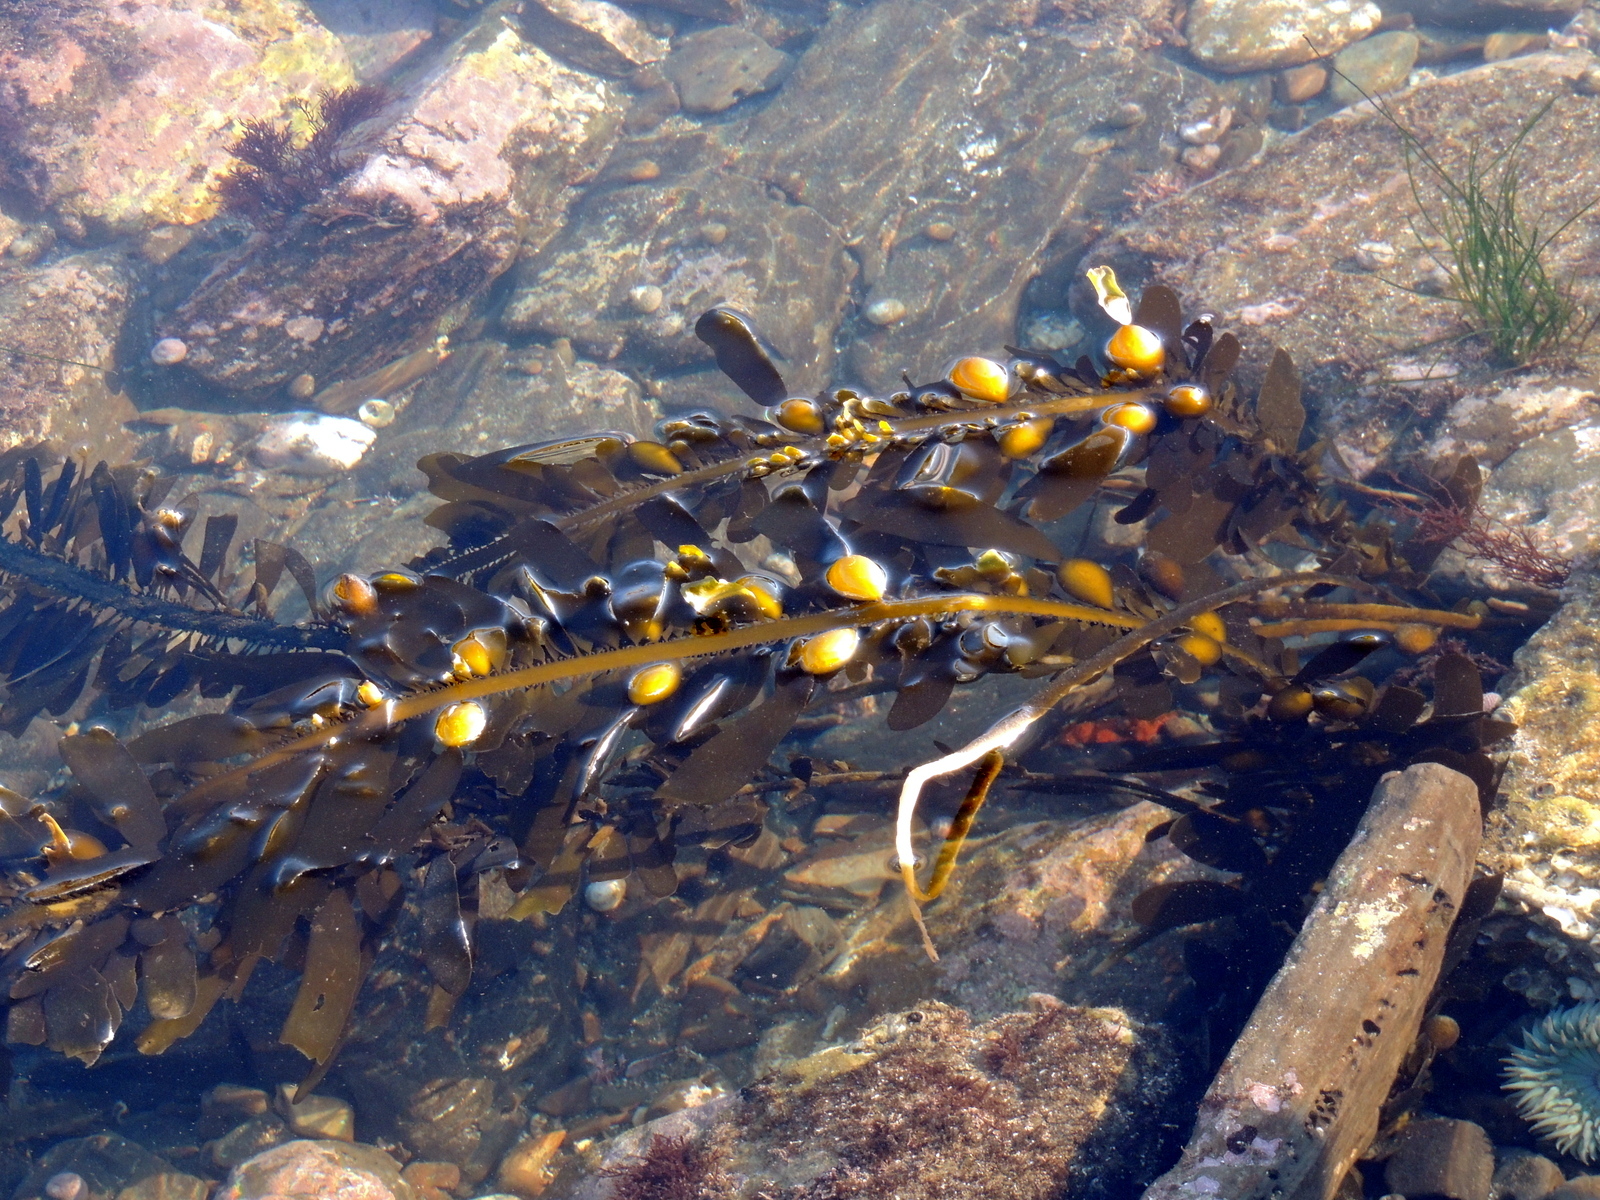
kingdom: Chromista
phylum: Ochrophyta
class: Phaeophyceae
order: Laminariales
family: Lessoniaceae
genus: Egregia
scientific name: Egregia menziesii
